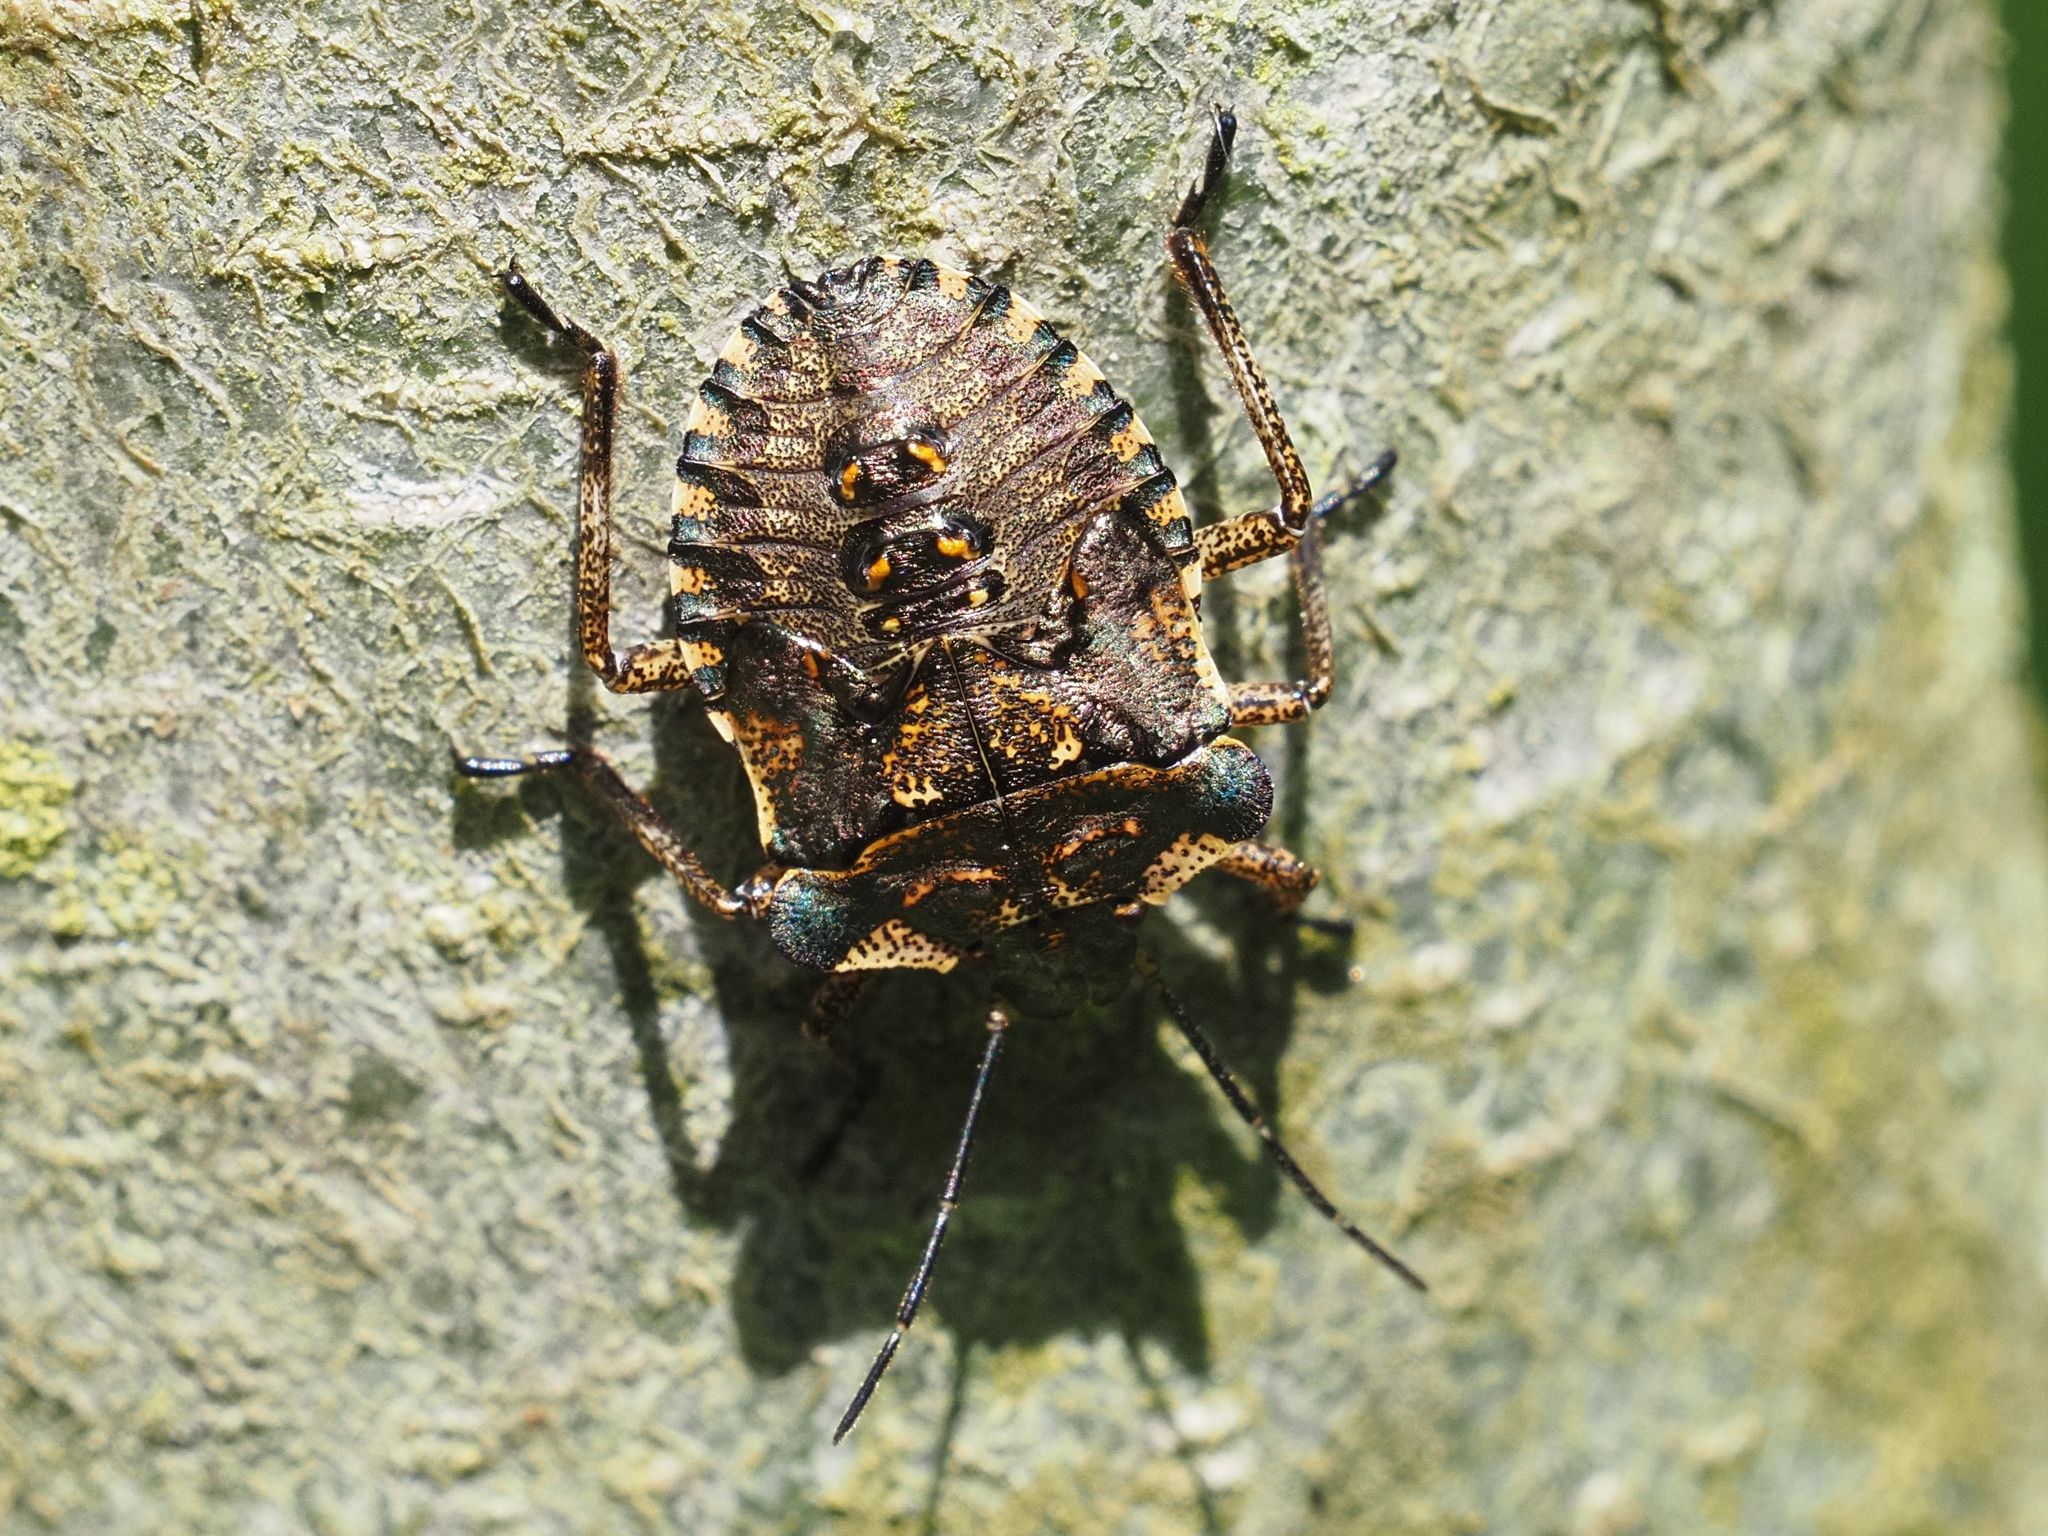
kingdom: Animalia
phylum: Arthropoda
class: Insecta
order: Hemiptera
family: Pentatomidae
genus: Pentatoma
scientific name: Pentatoma rufipes
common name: Forest bug
